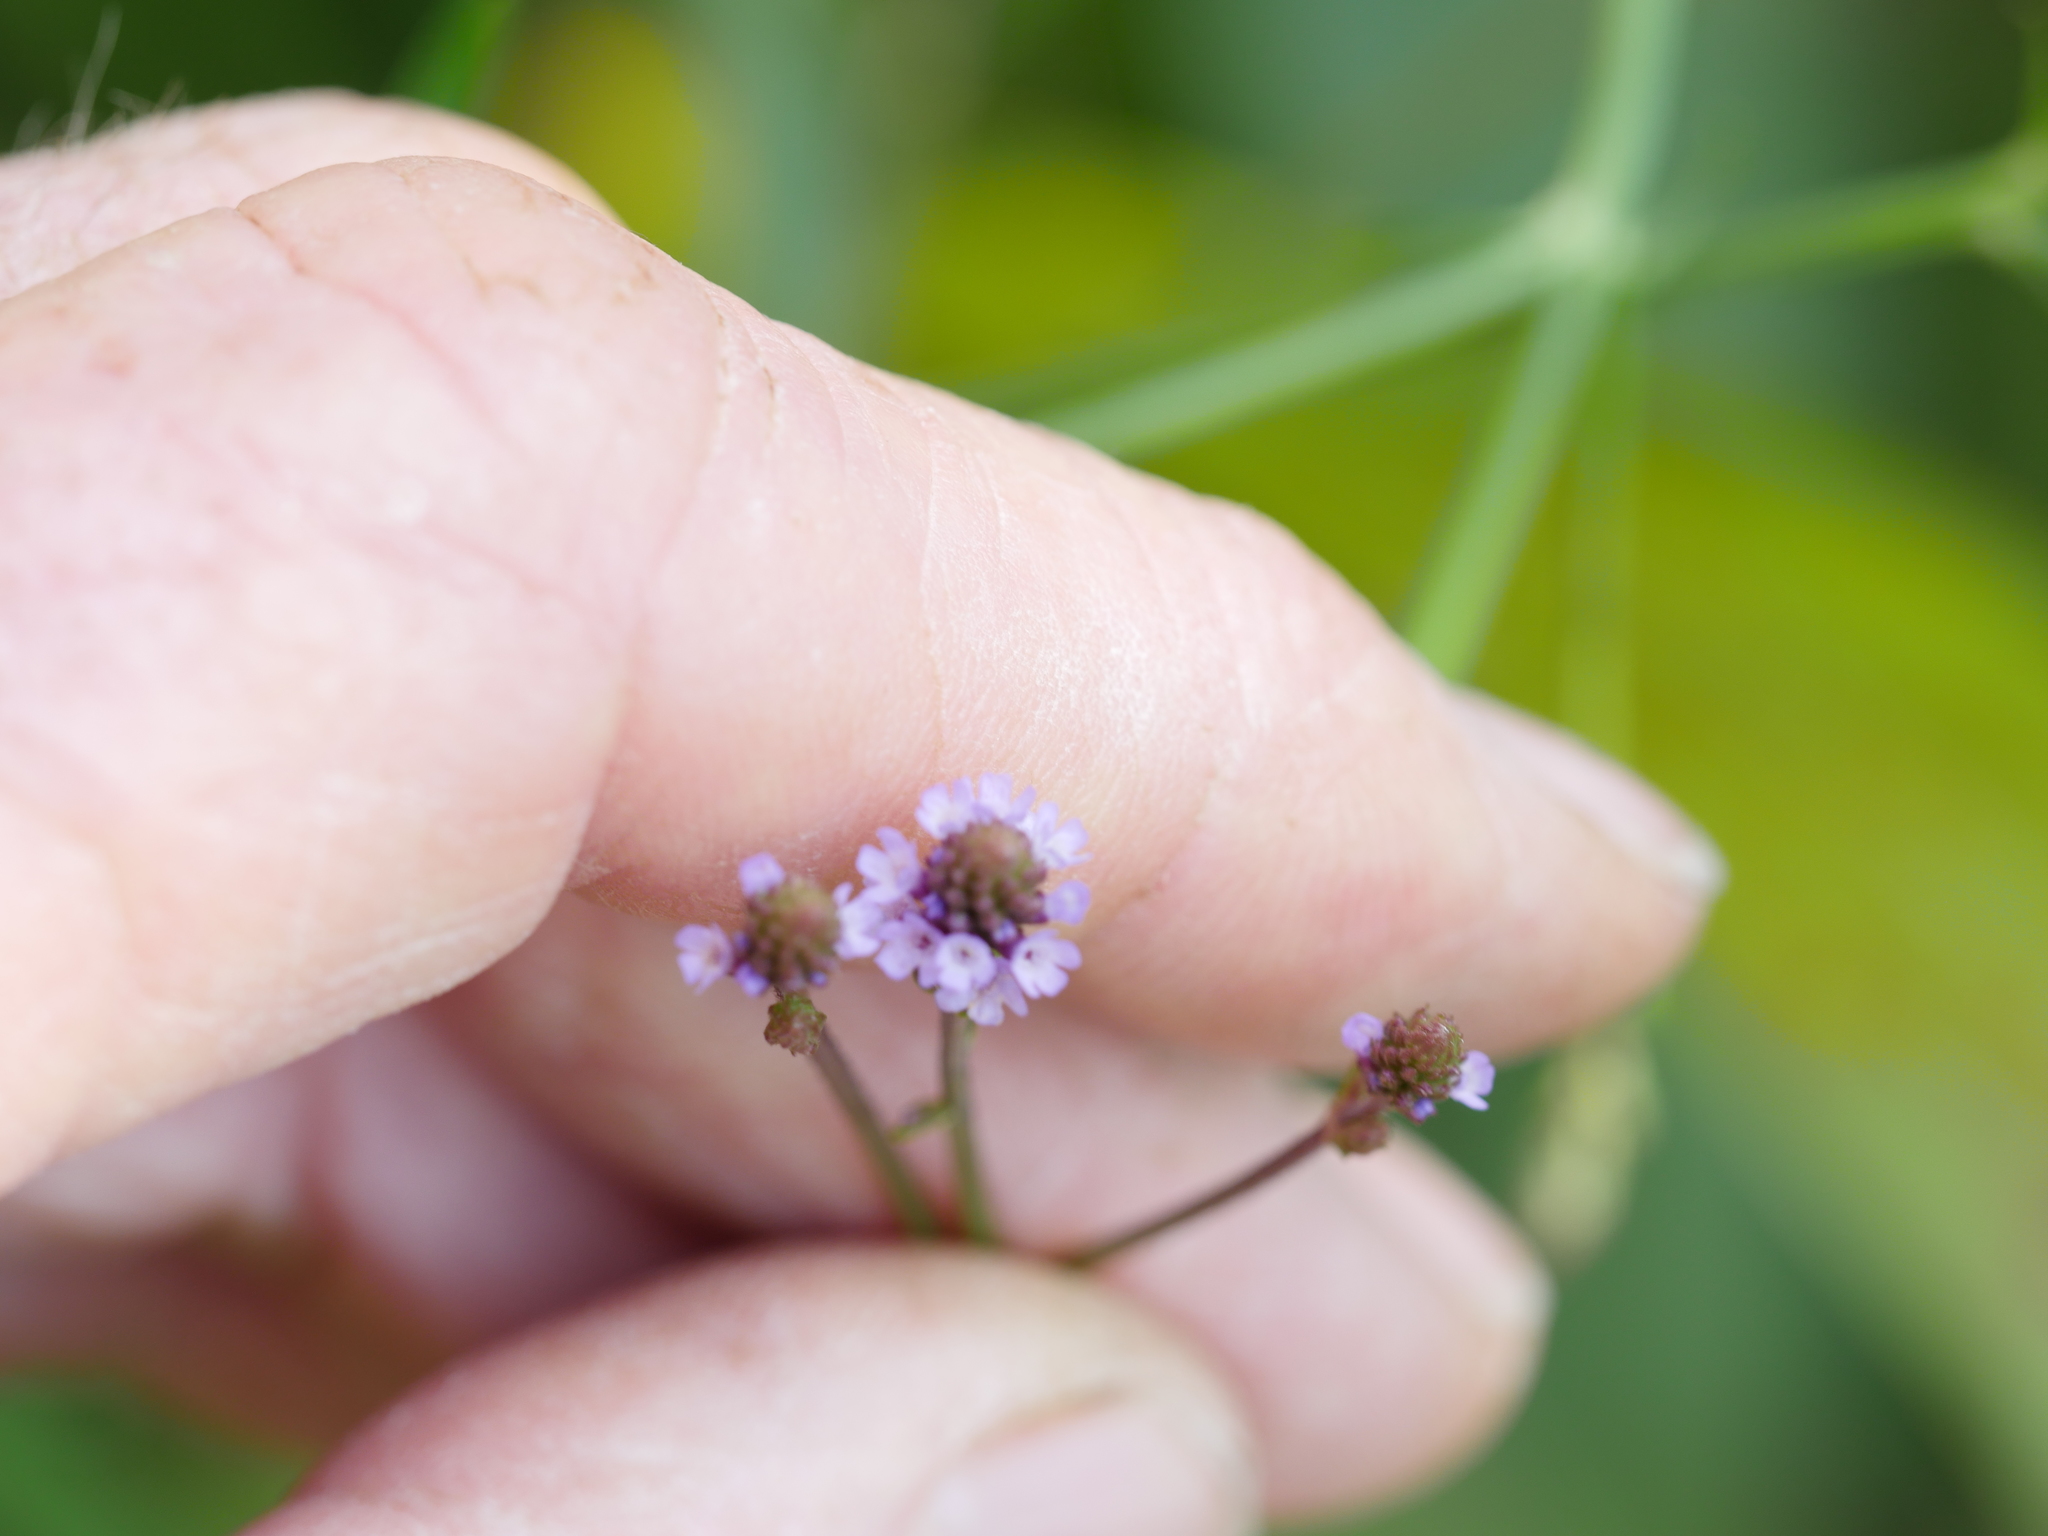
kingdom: Plantae
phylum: Tracheophyta
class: Magnoliopsida
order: Lamiales
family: Verbenaceae
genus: Verbena
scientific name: Verbena litoralis
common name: Seashore vervain
